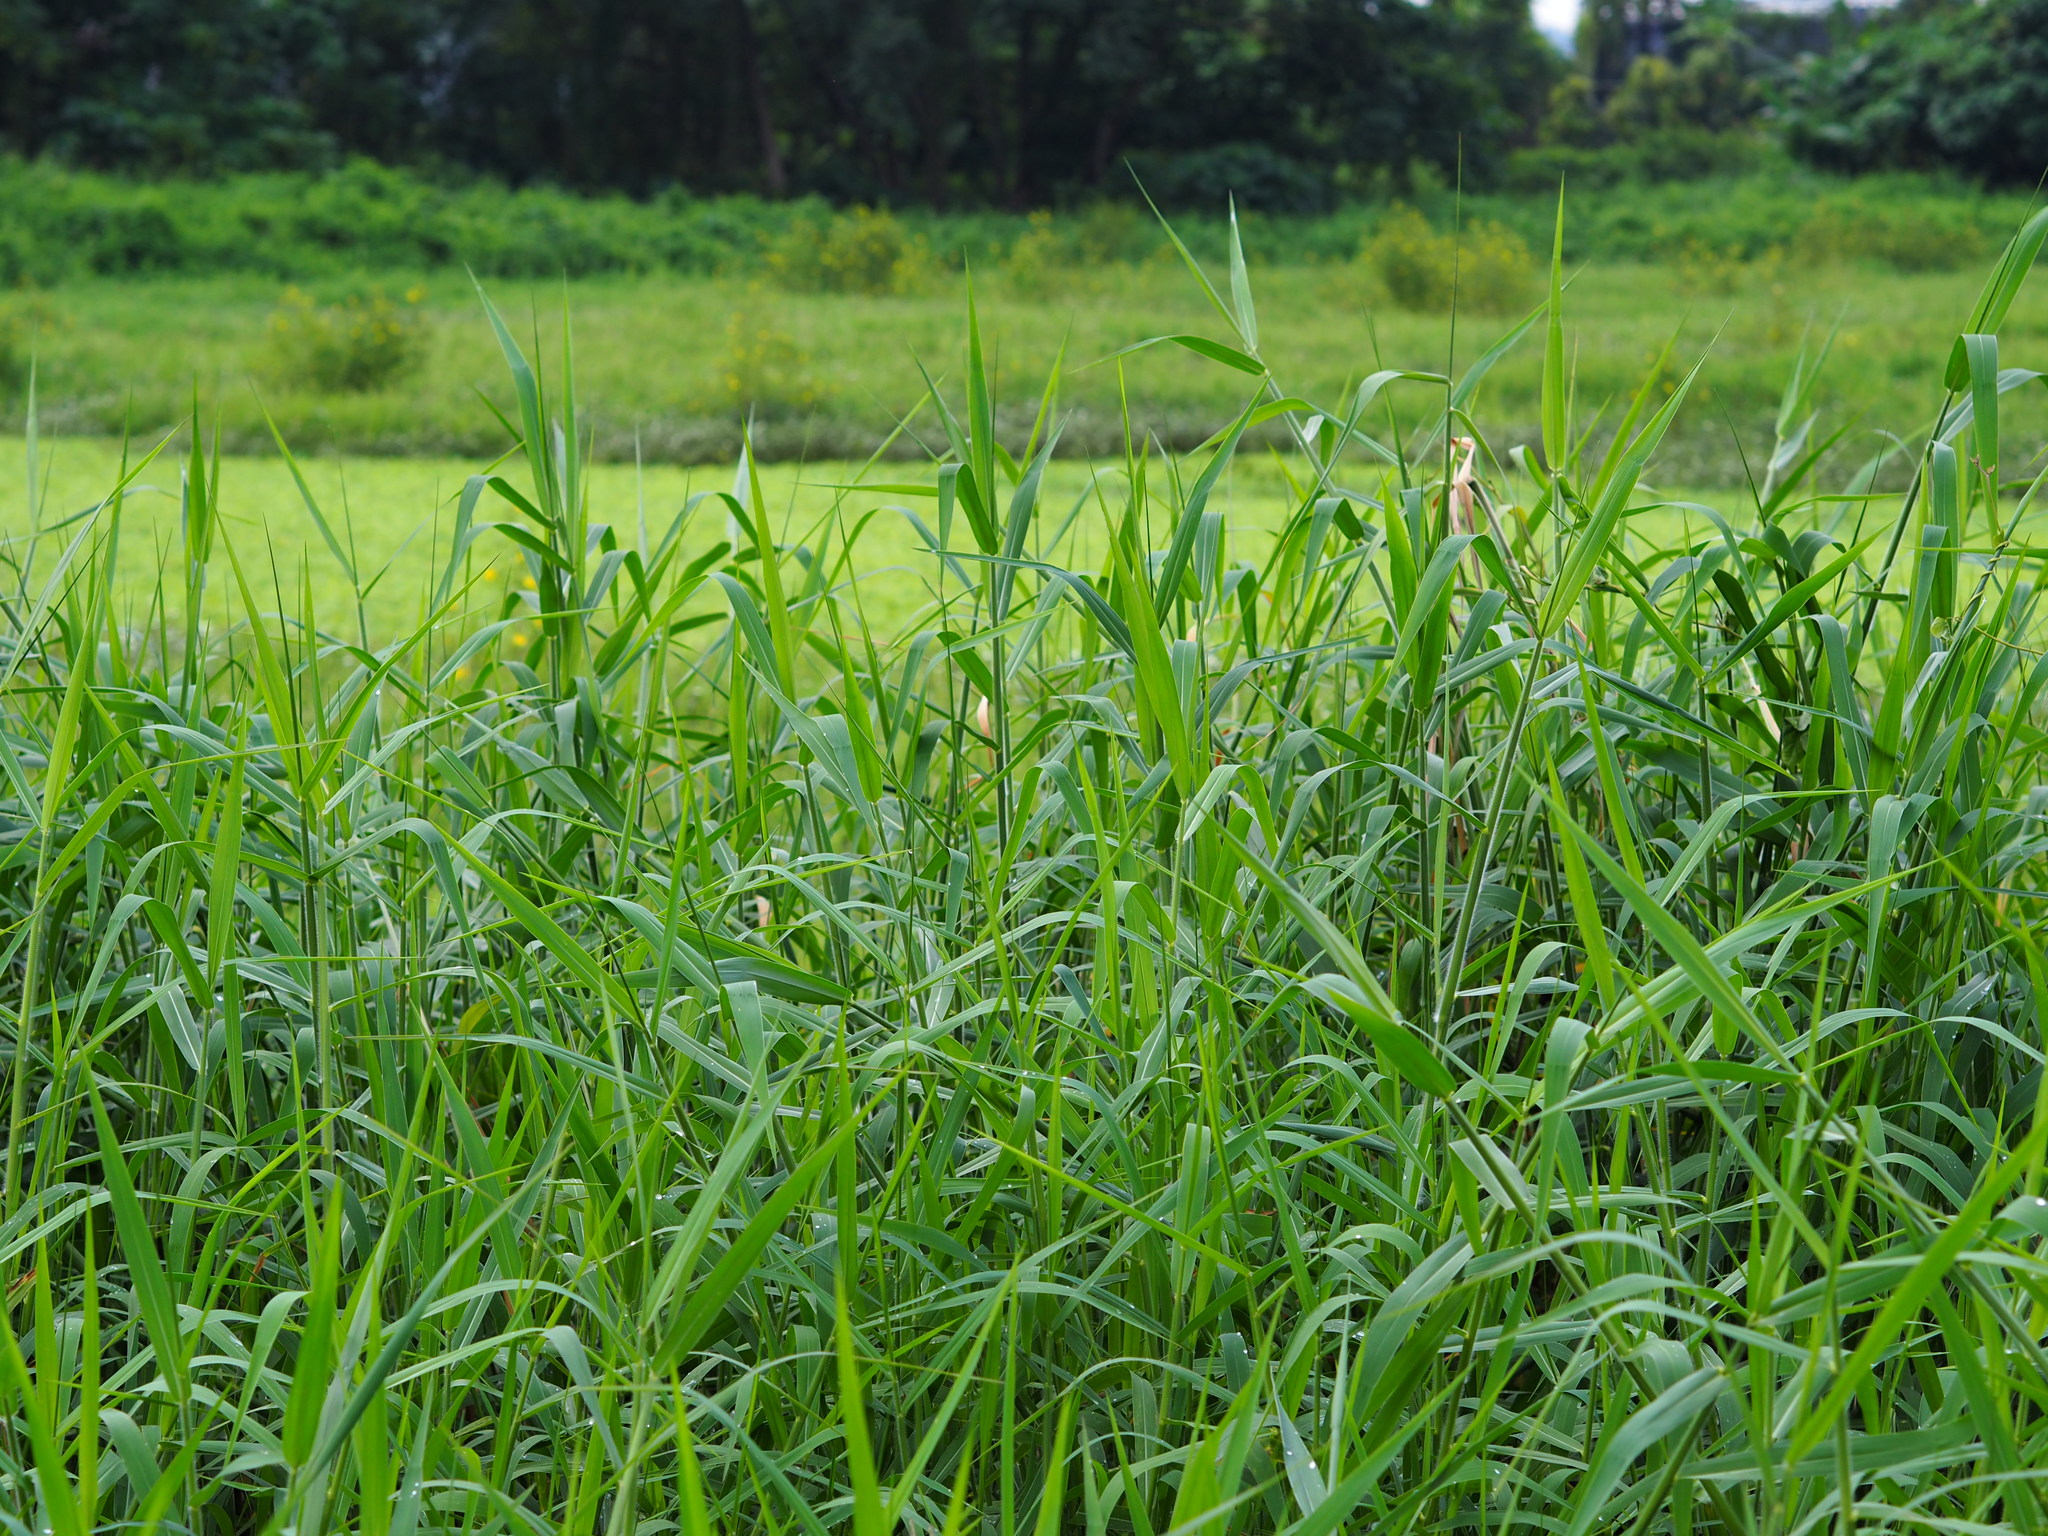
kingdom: Plantae
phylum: Tracheophyta
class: Liliopsida
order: Poales
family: Poaceae
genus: Urochloa
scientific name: Urochloa mutica
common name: Para grass
